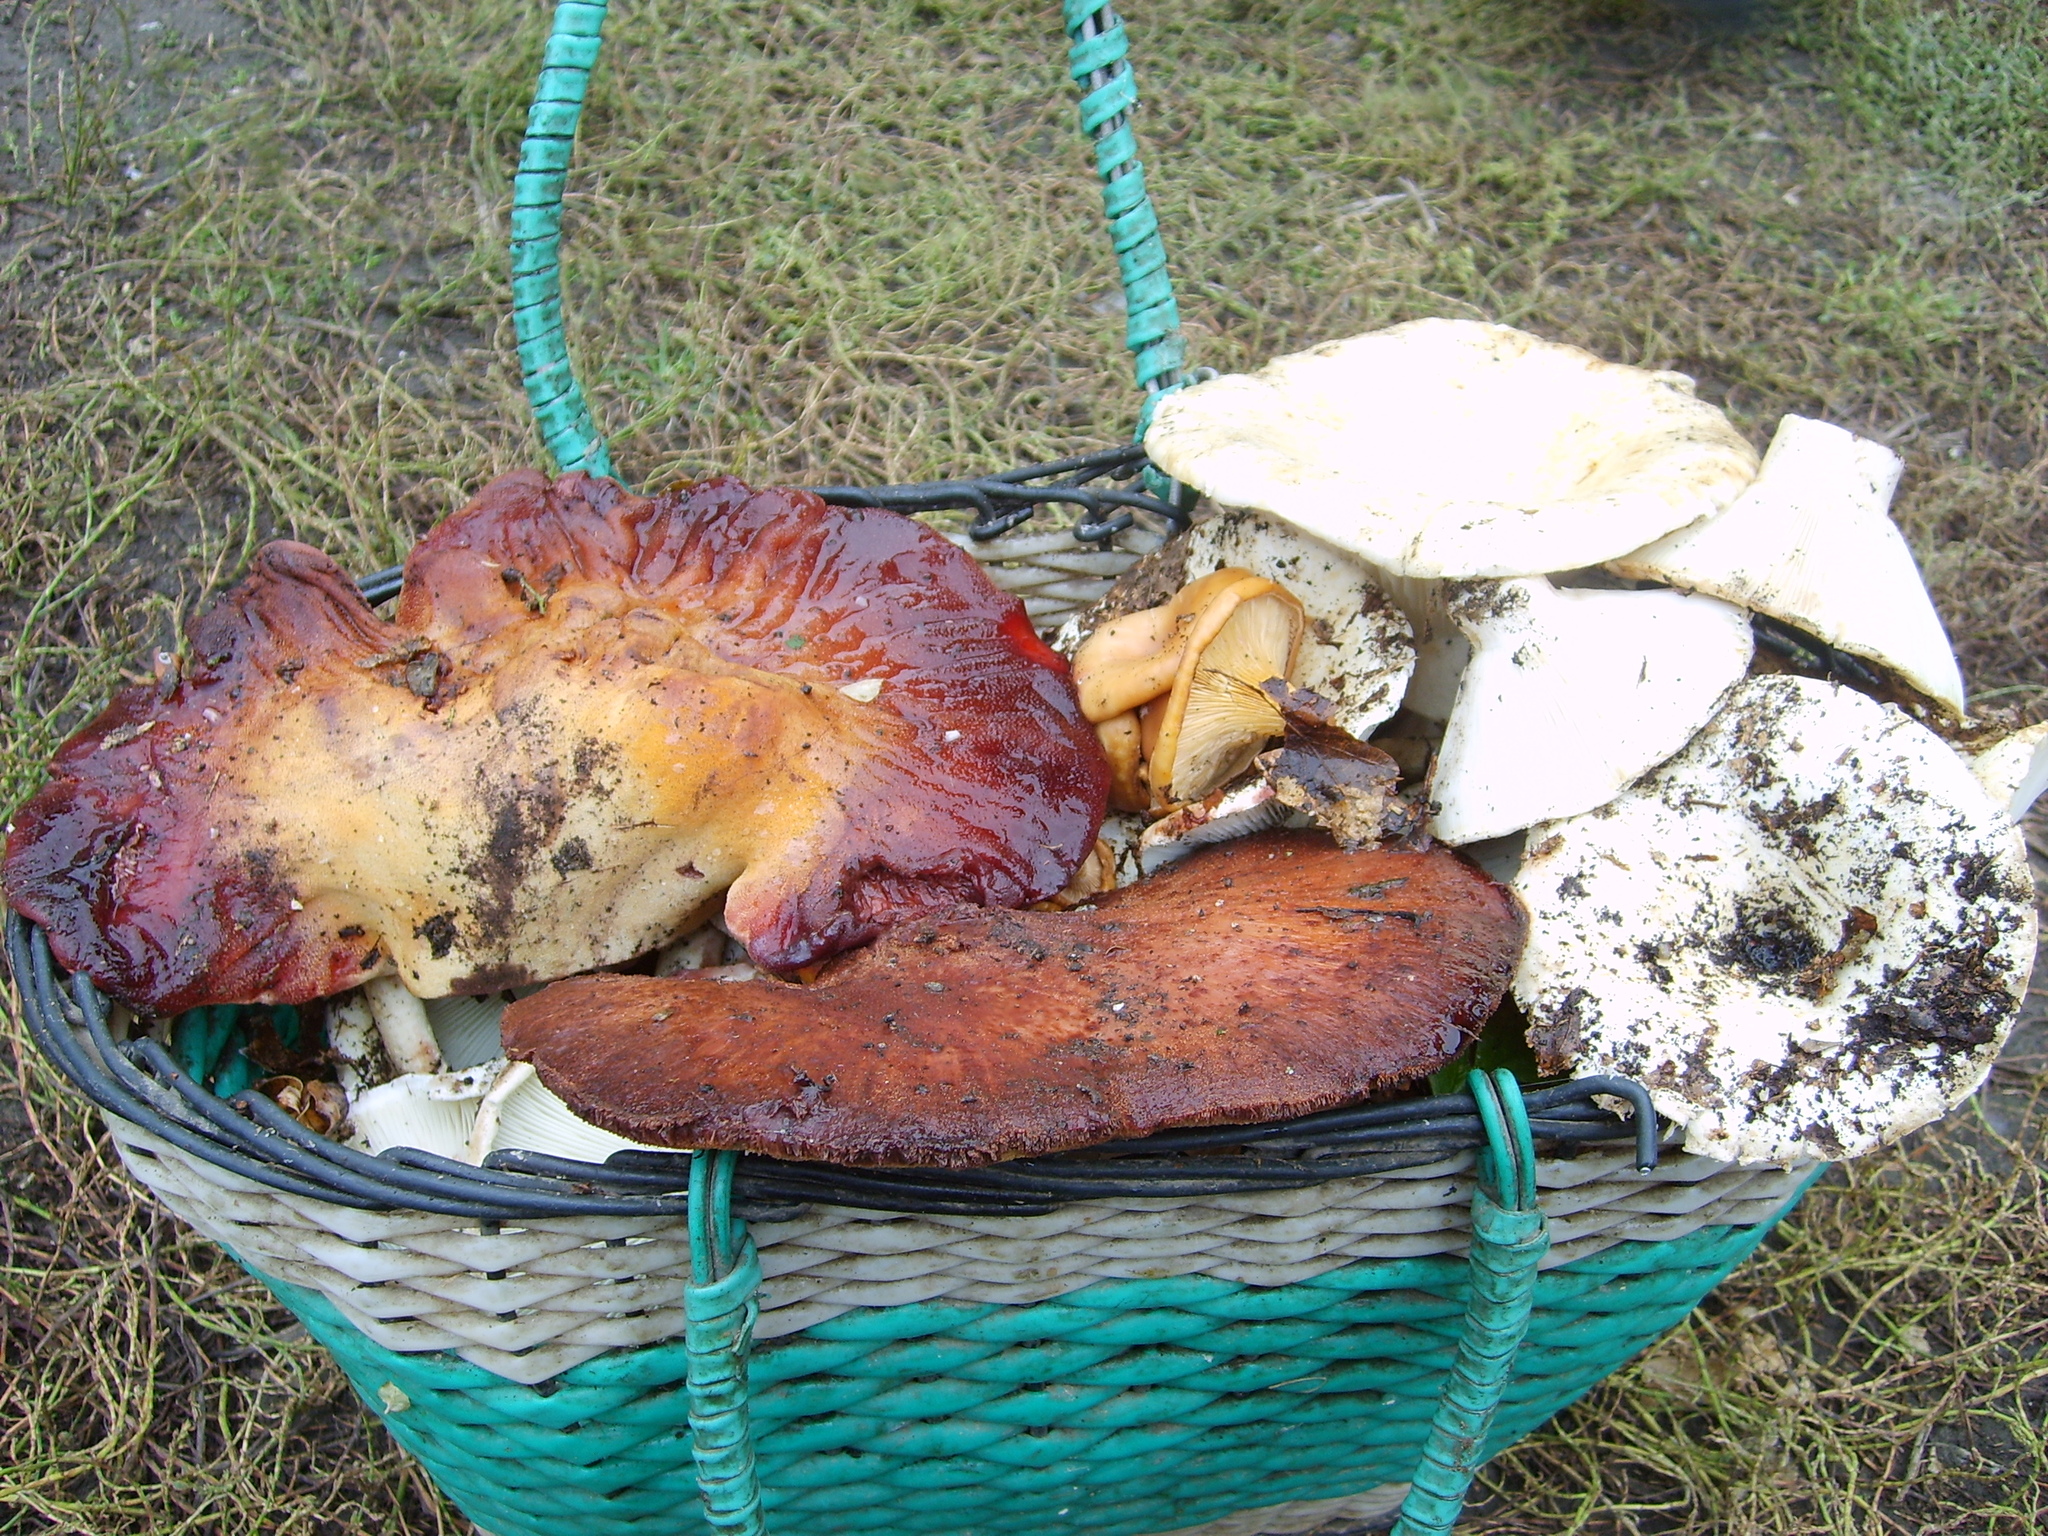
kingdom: Fungi
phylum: Basidiomycota
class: Agaricomycetes
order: Agaricales
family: Fistulinaceae
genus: Fistulina
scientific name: Fistulina hepatica
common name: Beef-steak fungus
